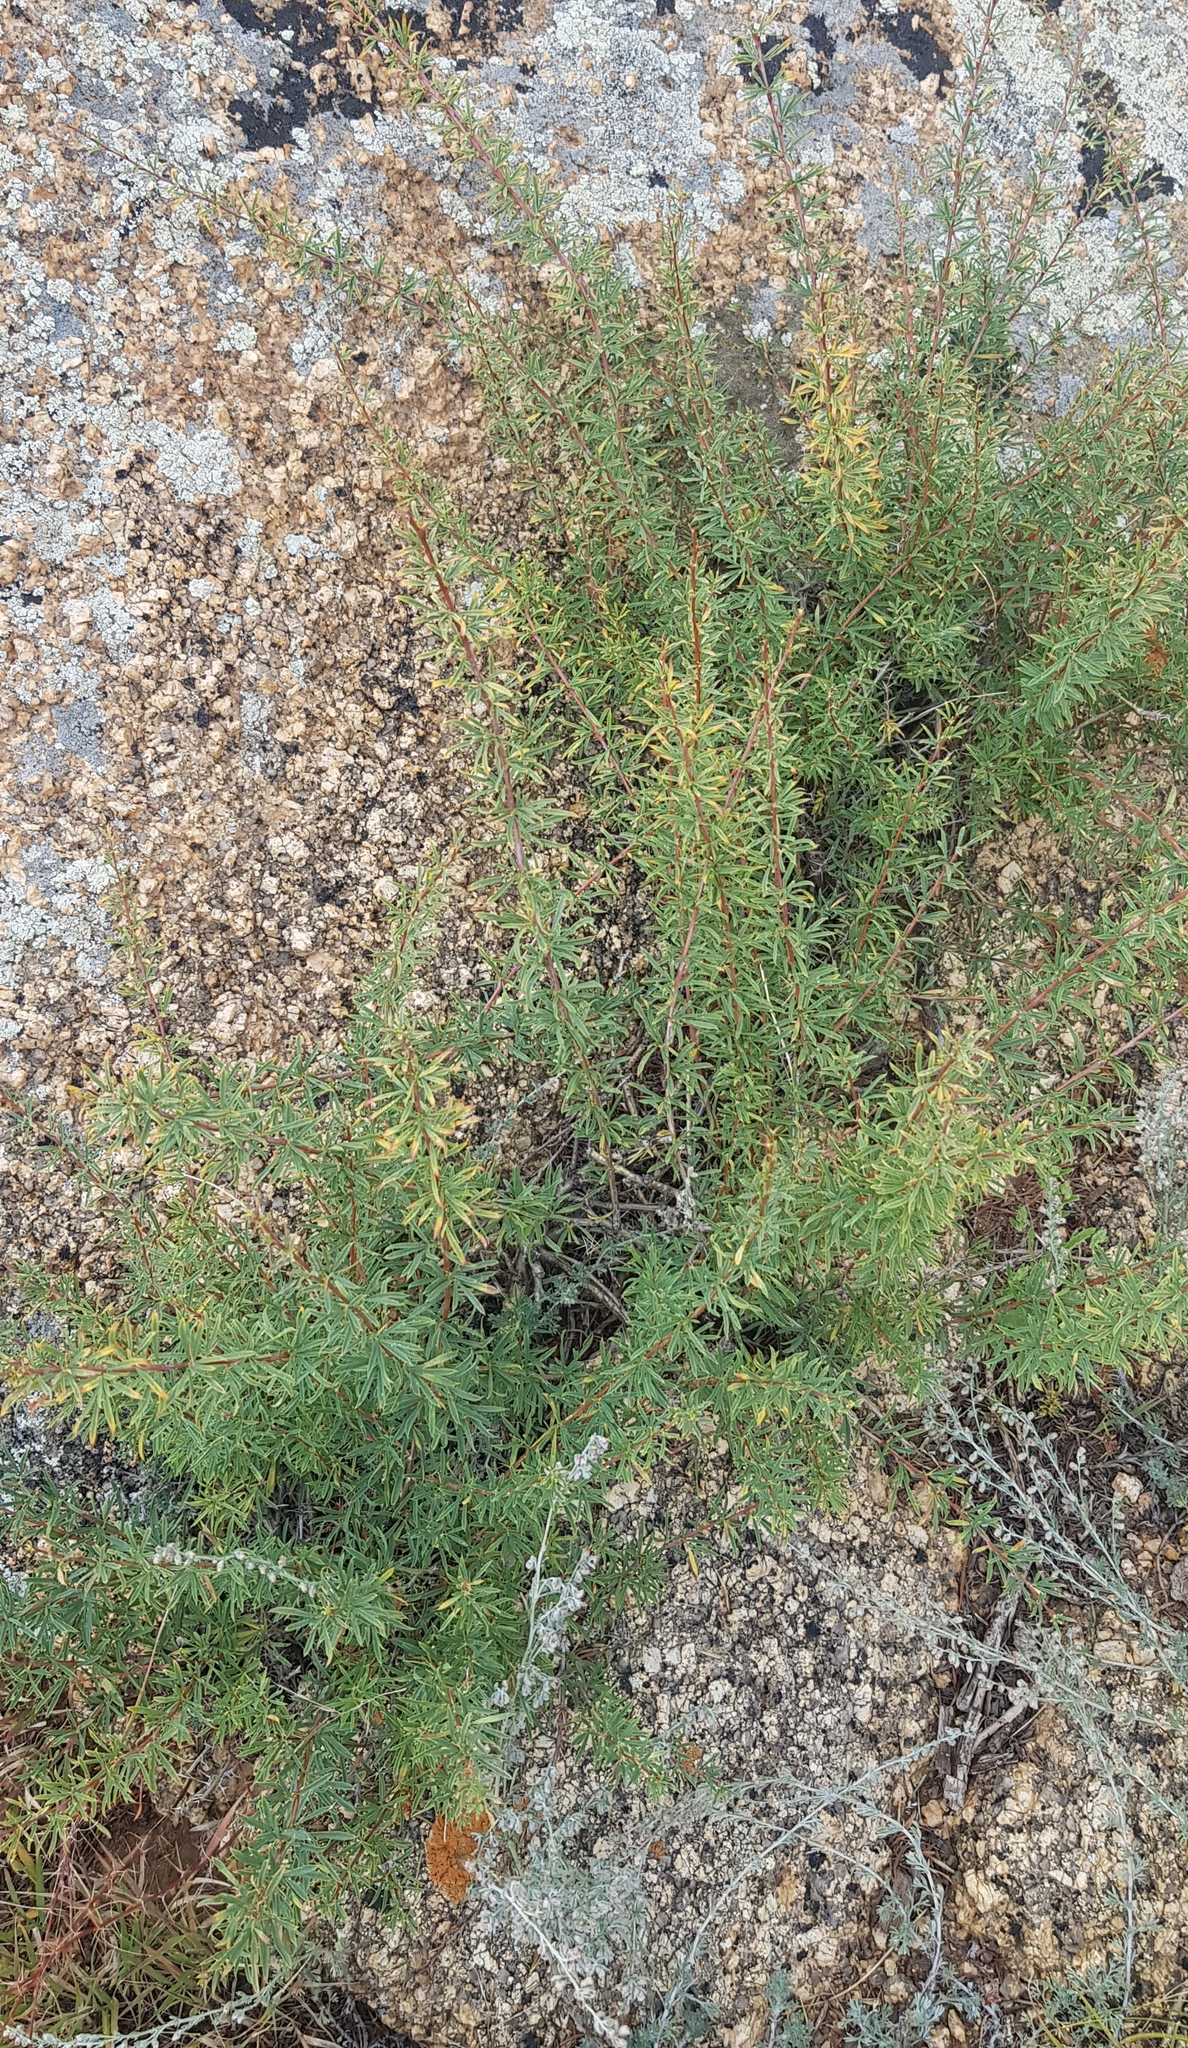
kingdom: Plantae
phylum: Tracheophyta
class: Magnoliopsida
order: Fabales
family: Fabaceae
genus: Caragana
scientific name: Caragana pygmaea
